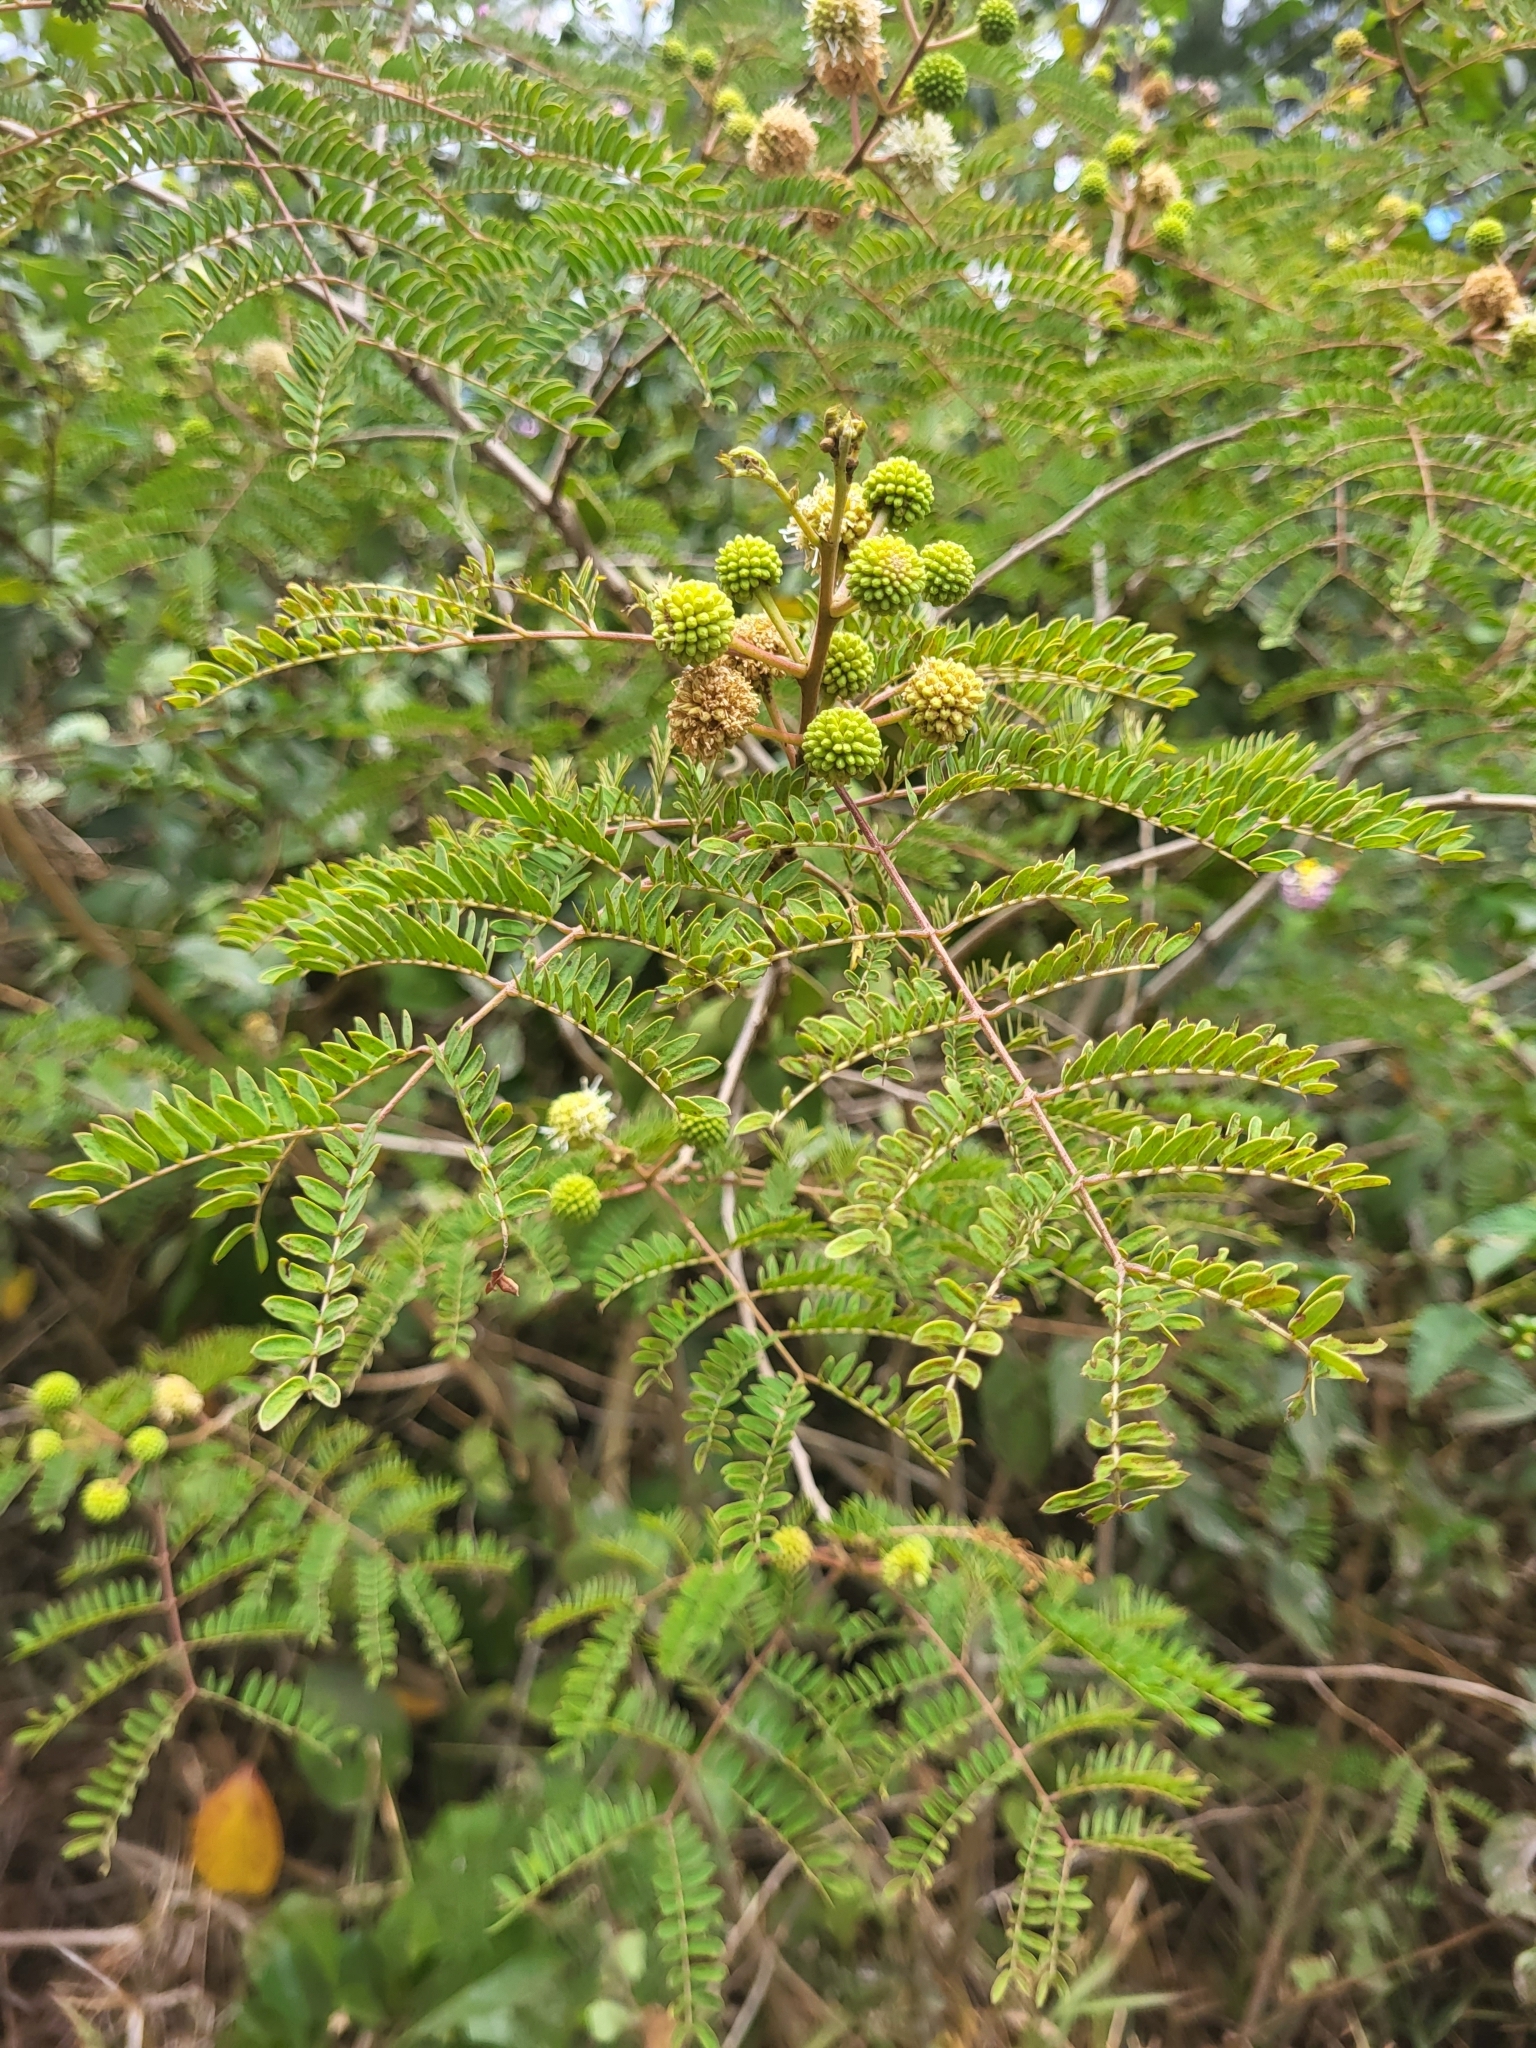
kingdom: Plantae
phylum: Tracheophyta
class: Magnoliopsida
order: Fabales
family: Fabaceae
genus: Leucaena
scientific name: Leucaena leucocephala
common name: White leadtree
